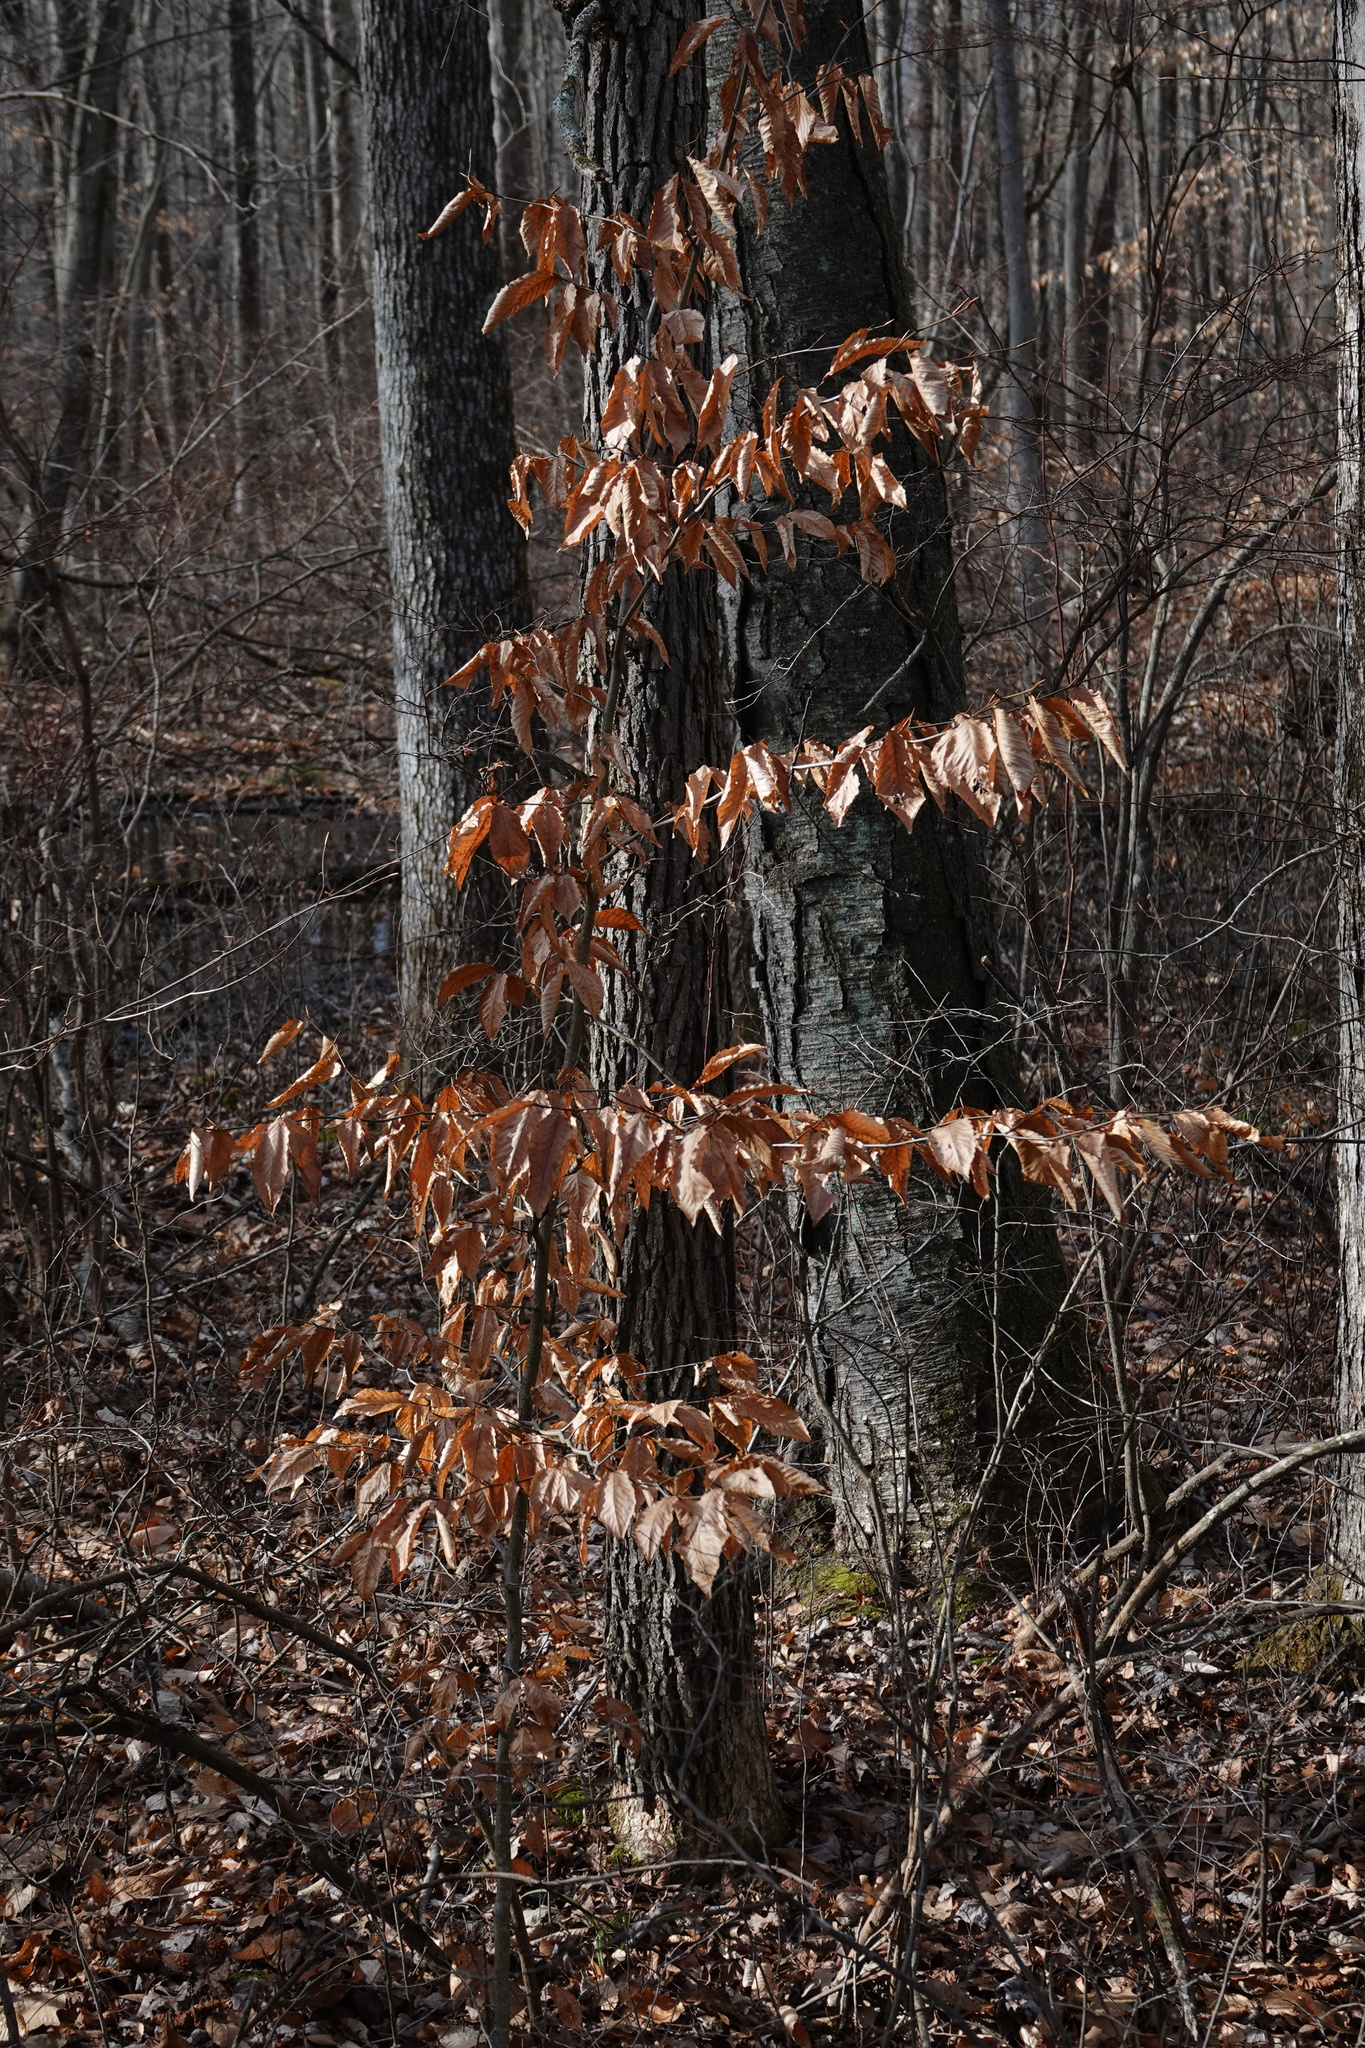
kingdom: Plantae
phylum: Tracheophyta
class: Magnoliopsida
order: Fagales
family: Fagaceae
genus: Fagus
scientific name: Fagus grandifolia
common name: American beech
